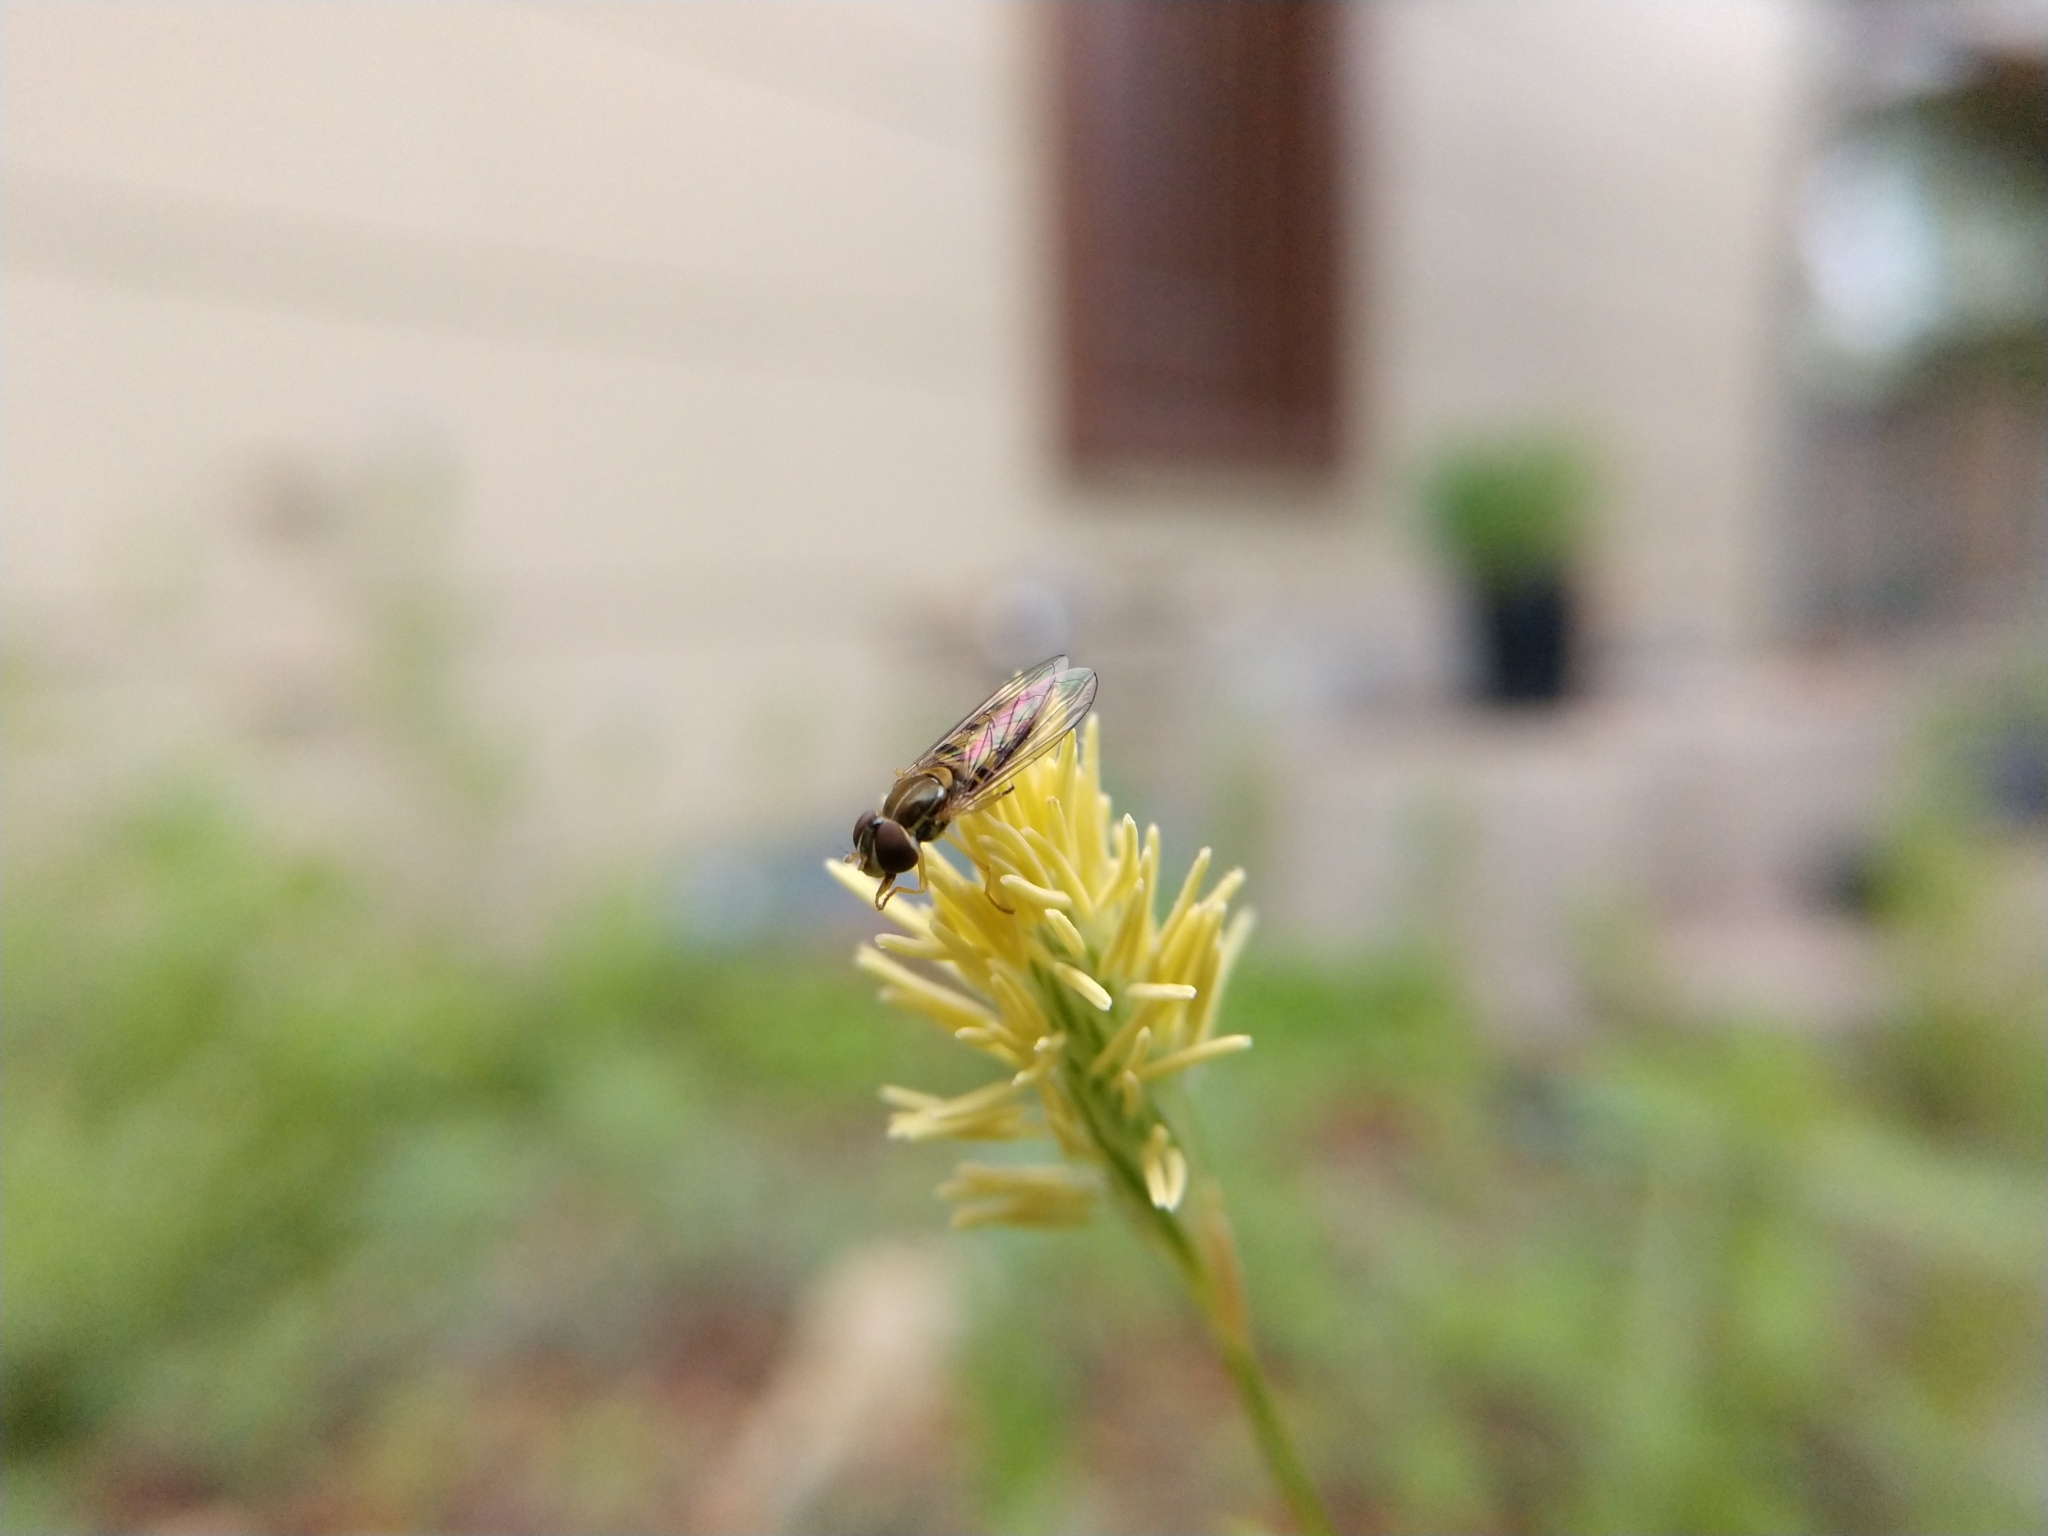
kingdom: Animalia
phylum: Arthropoda
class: Insecta
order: Diptera
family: Syrphidae
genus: Toxomerus
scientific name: Toxomerus marginatus
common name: Syrphid fly
